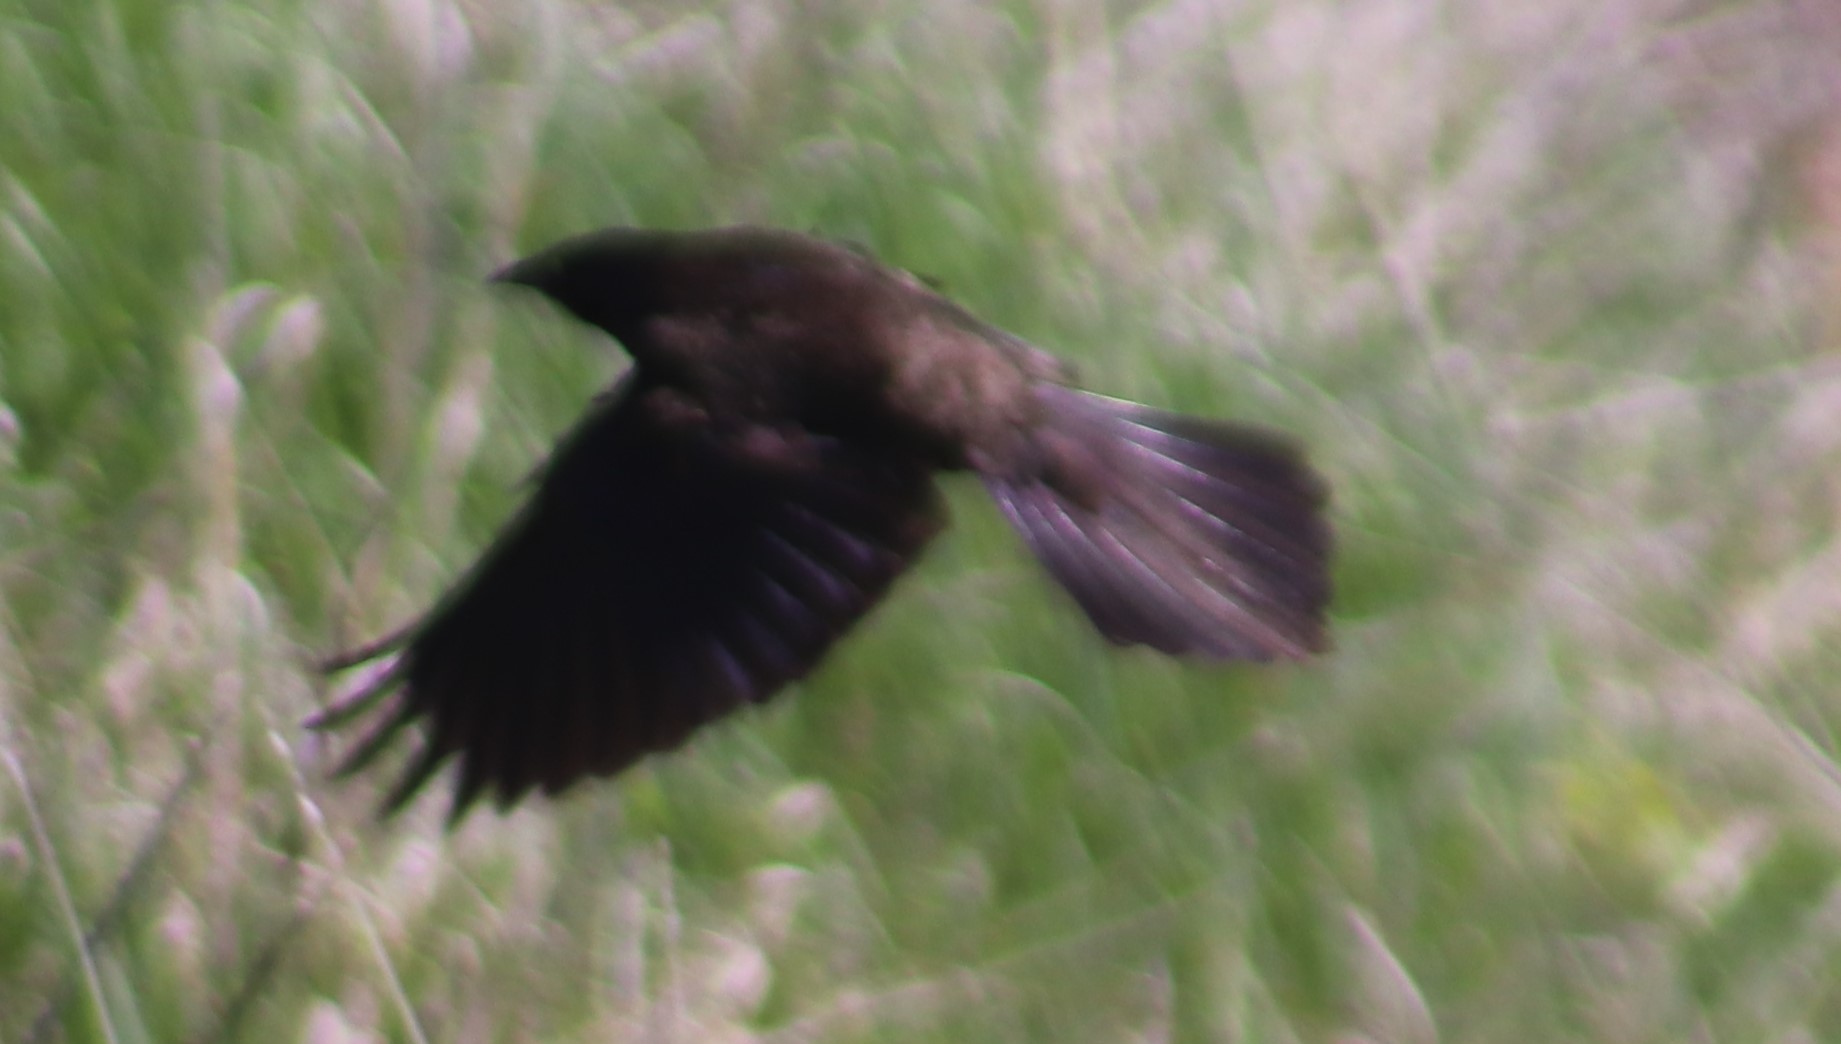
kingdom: Animalia
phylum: Chordata
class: Aves
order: Passeriformes
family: Icteridae
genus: Quiscalus
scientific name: Quiscalus quiscula
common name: Common grackle
